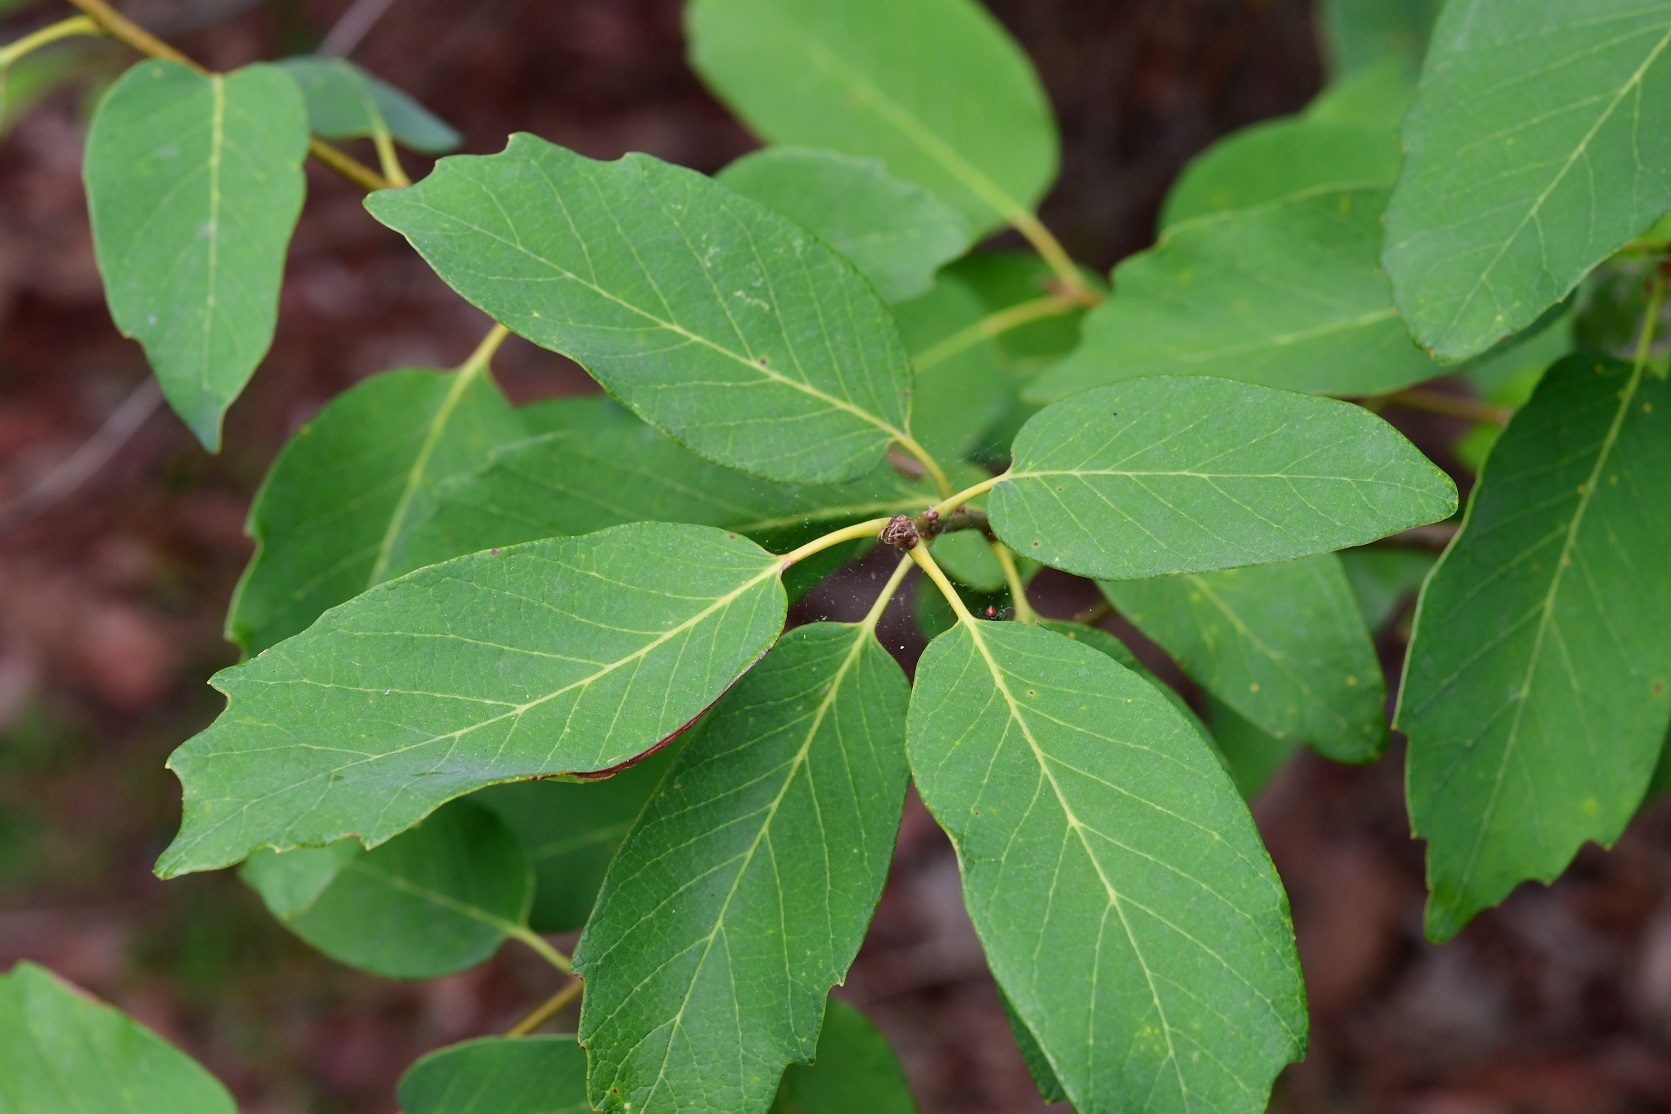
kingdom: Plantae
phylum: Tracheophyta
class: Magnoliopsida
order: Fagales
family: Fagaceae
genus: Quercus
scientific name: Quercus polymorpha
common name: Mexican white oak
